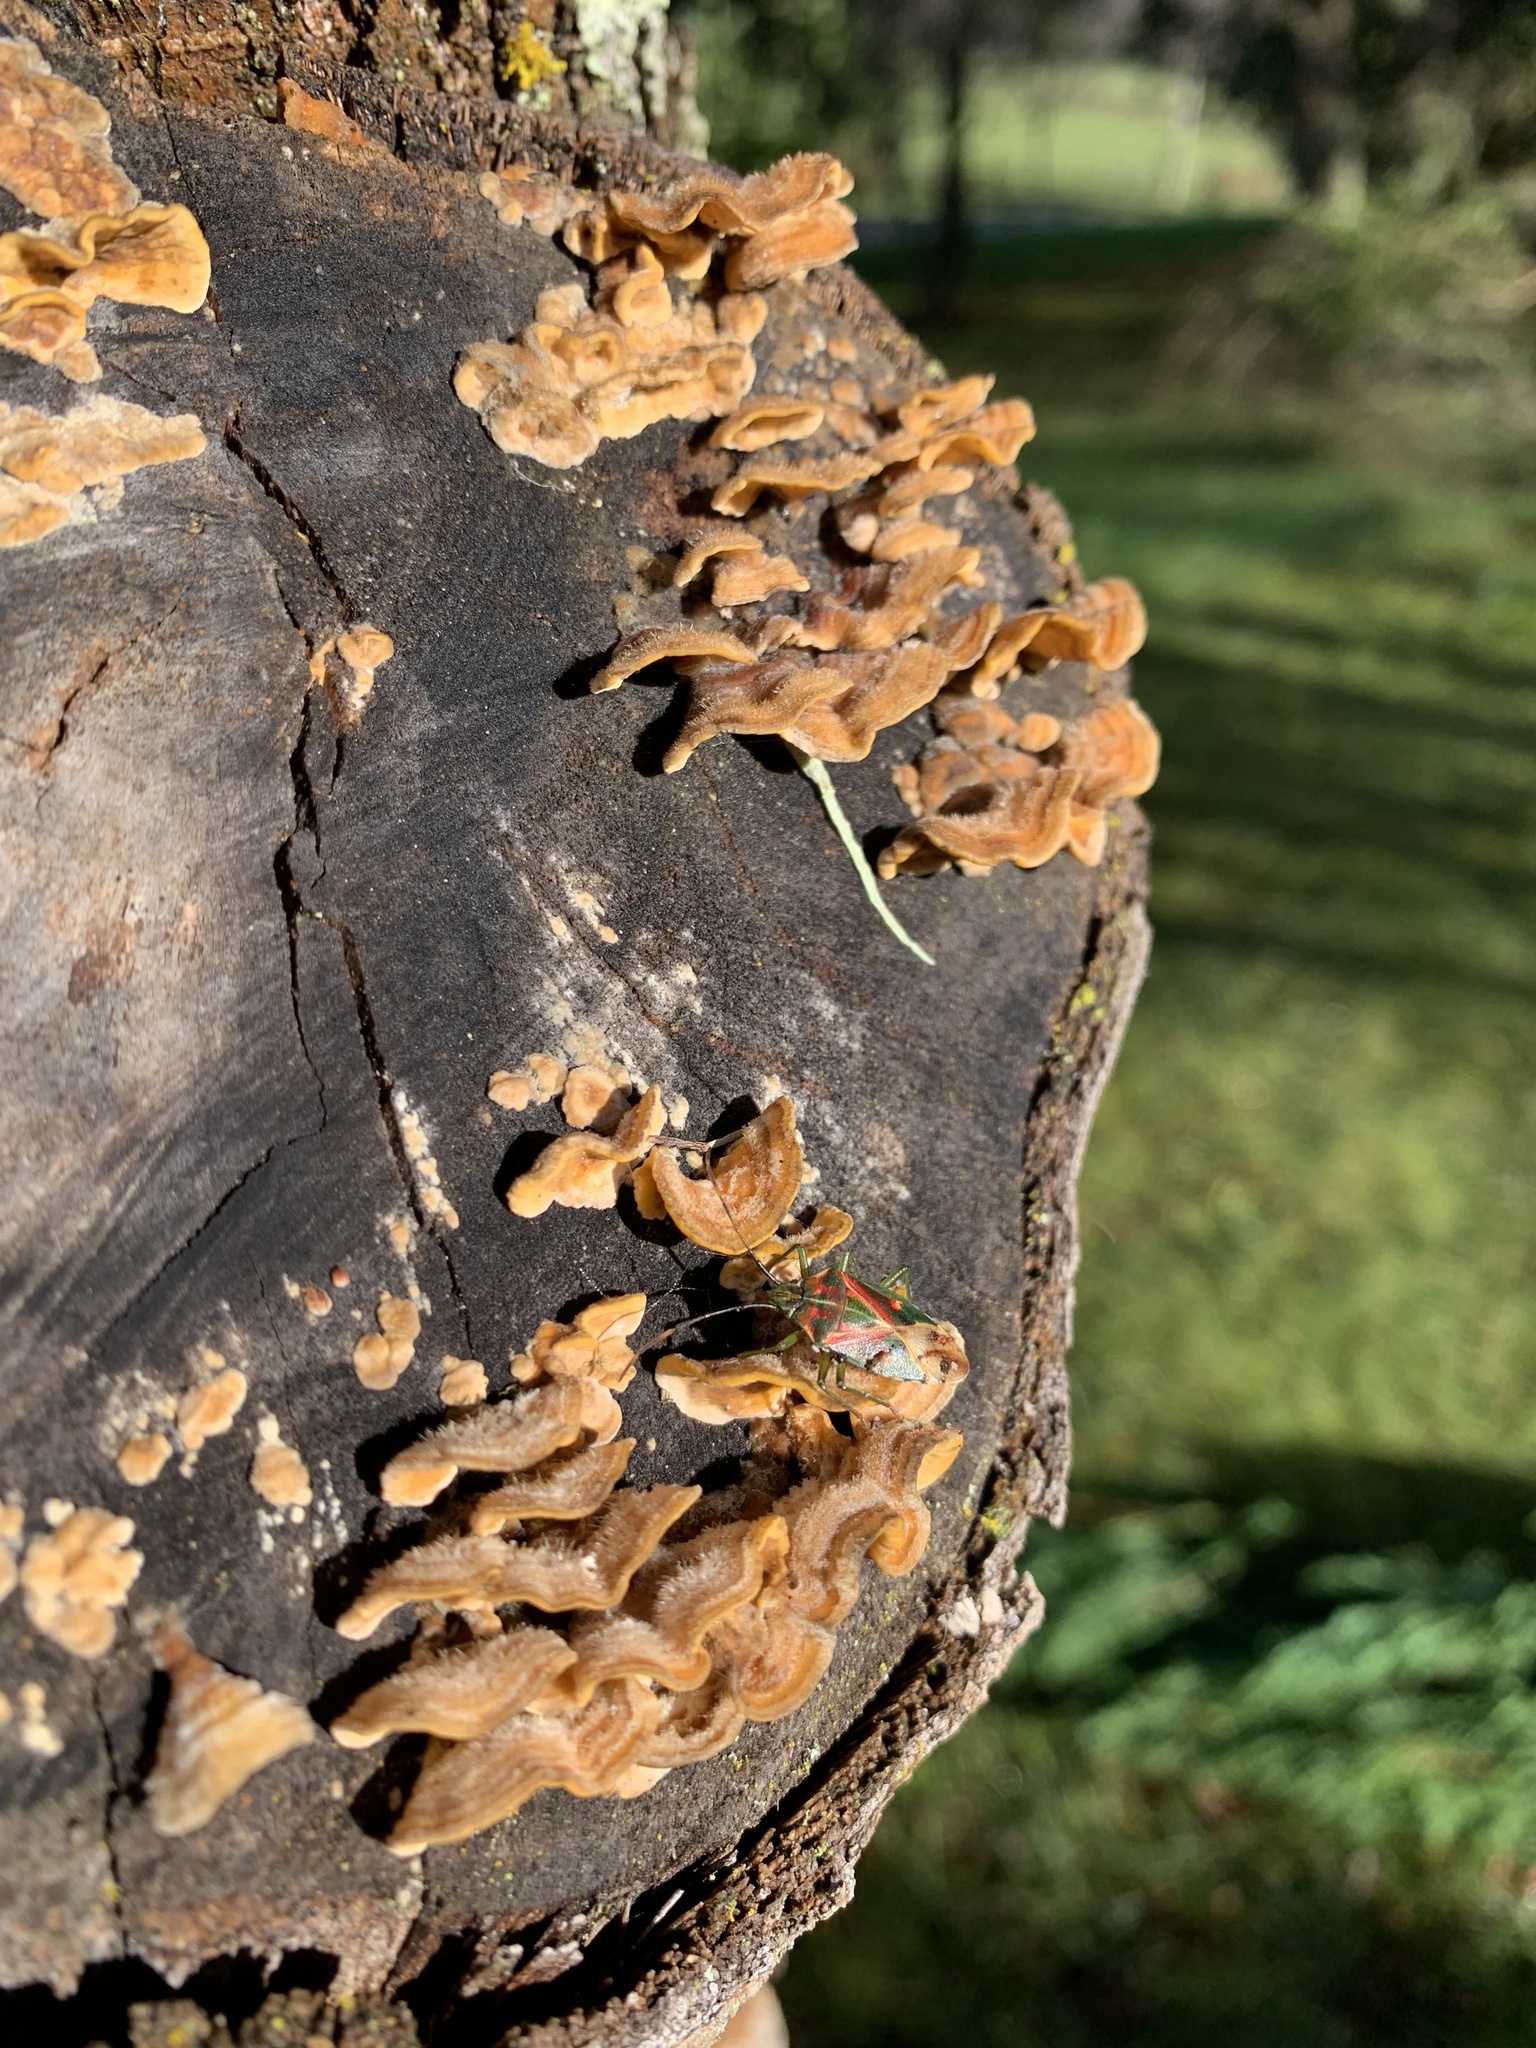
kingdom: Fungi
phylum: Basidiomycota
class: Agaricomycetes
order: Russulales
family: Stereaceae
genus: Stereum
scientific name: Stereum hirsutum
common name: Hairy curtain crust
